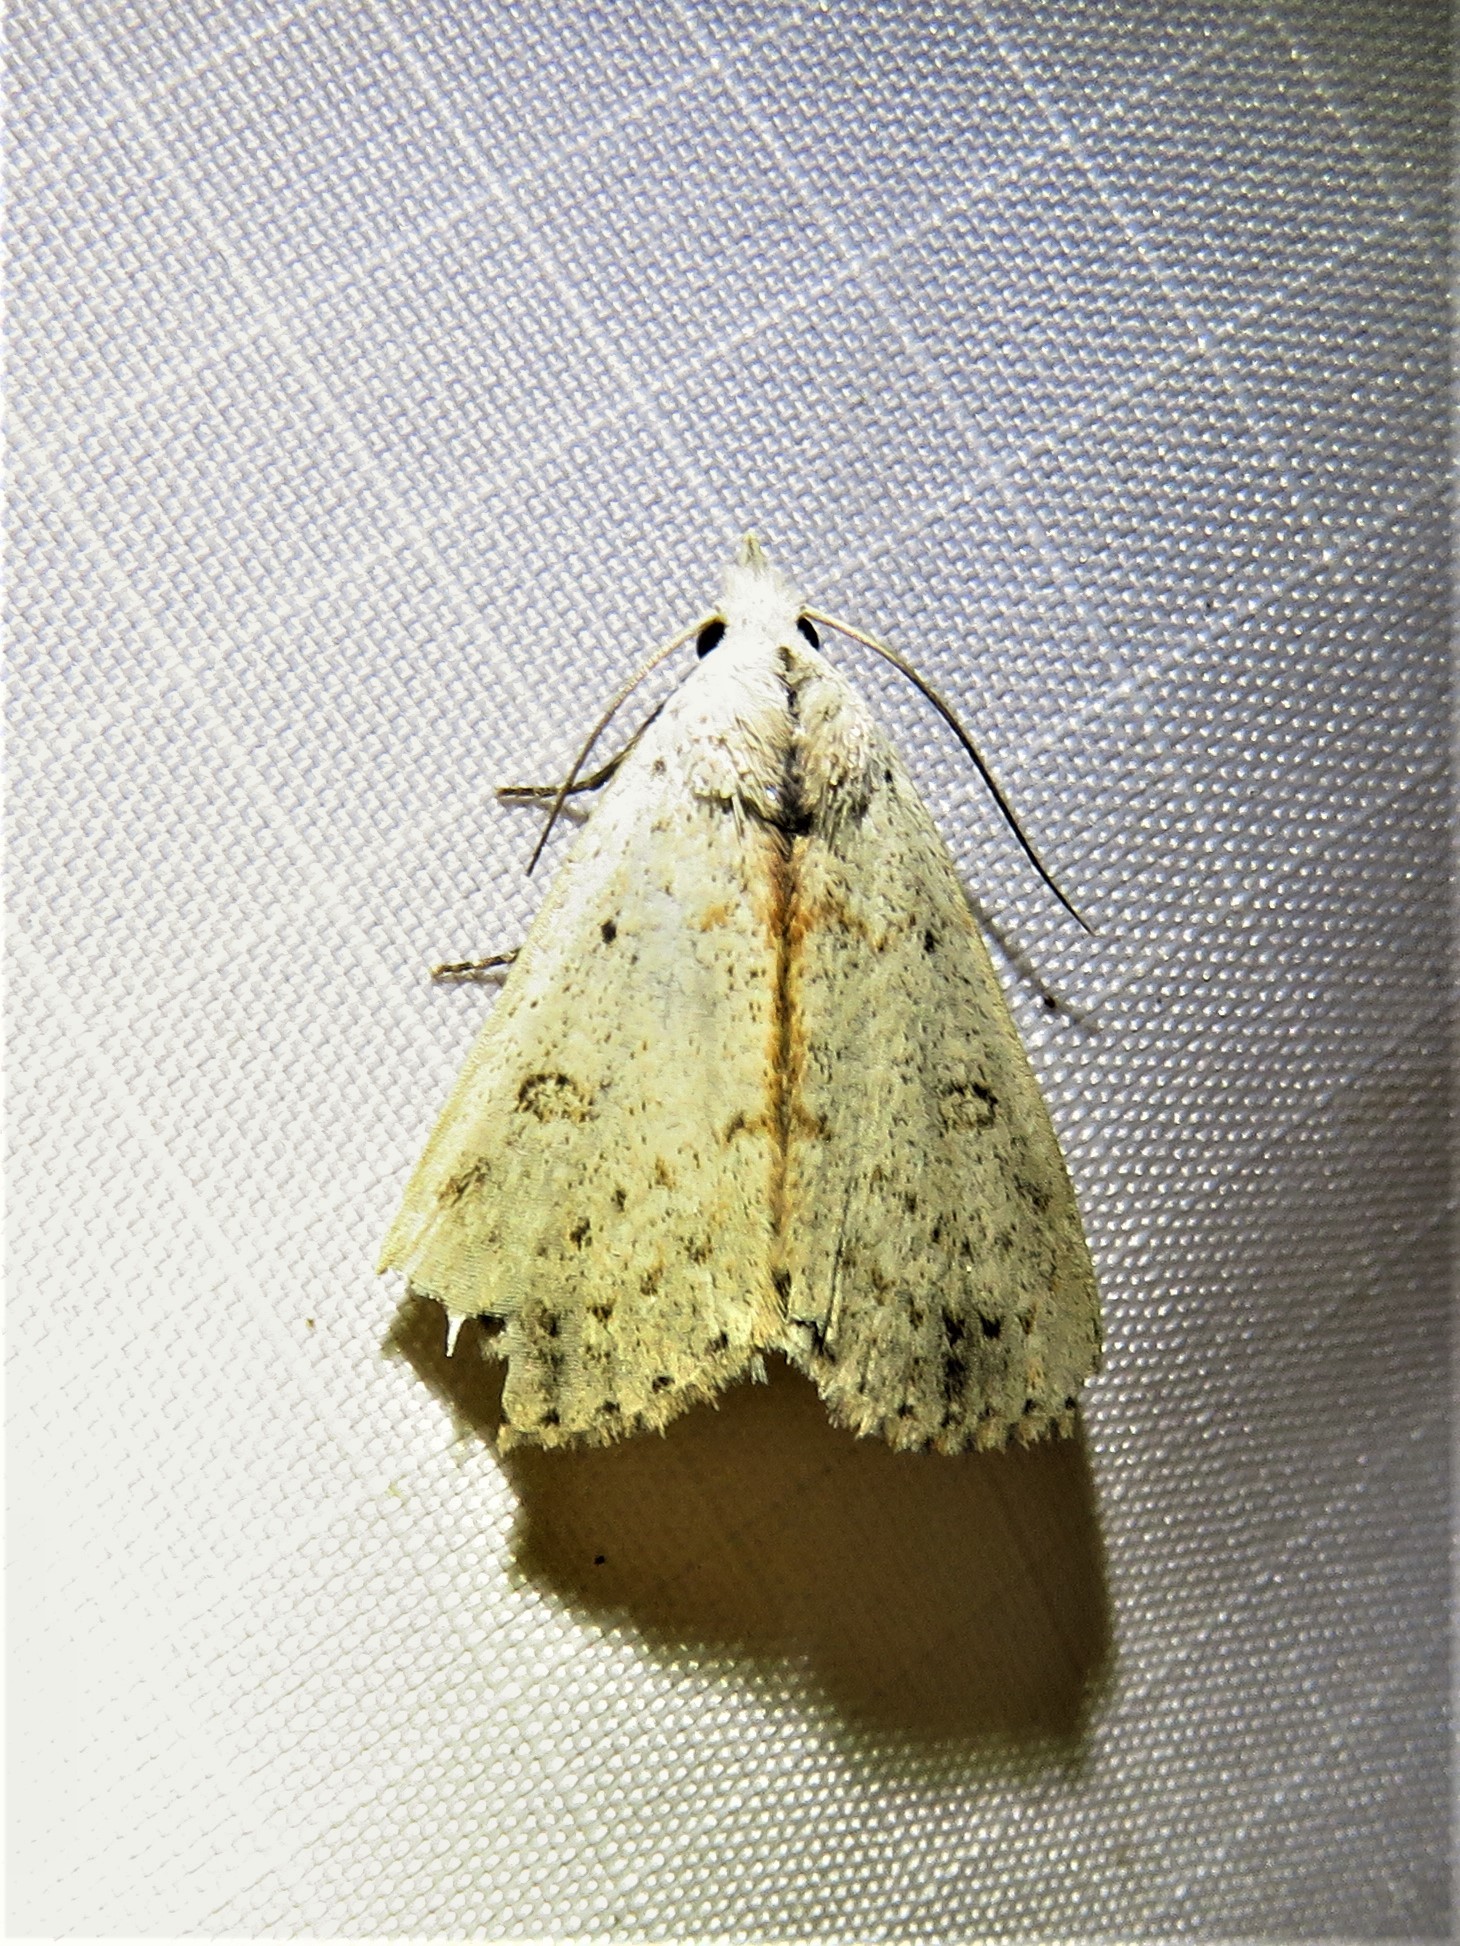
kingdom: Animalia
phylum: Arthropoda
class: Insecta
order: Lepidoptera
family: Erebidae
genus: Scolecocampa
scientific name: Scolecocampa liburna
